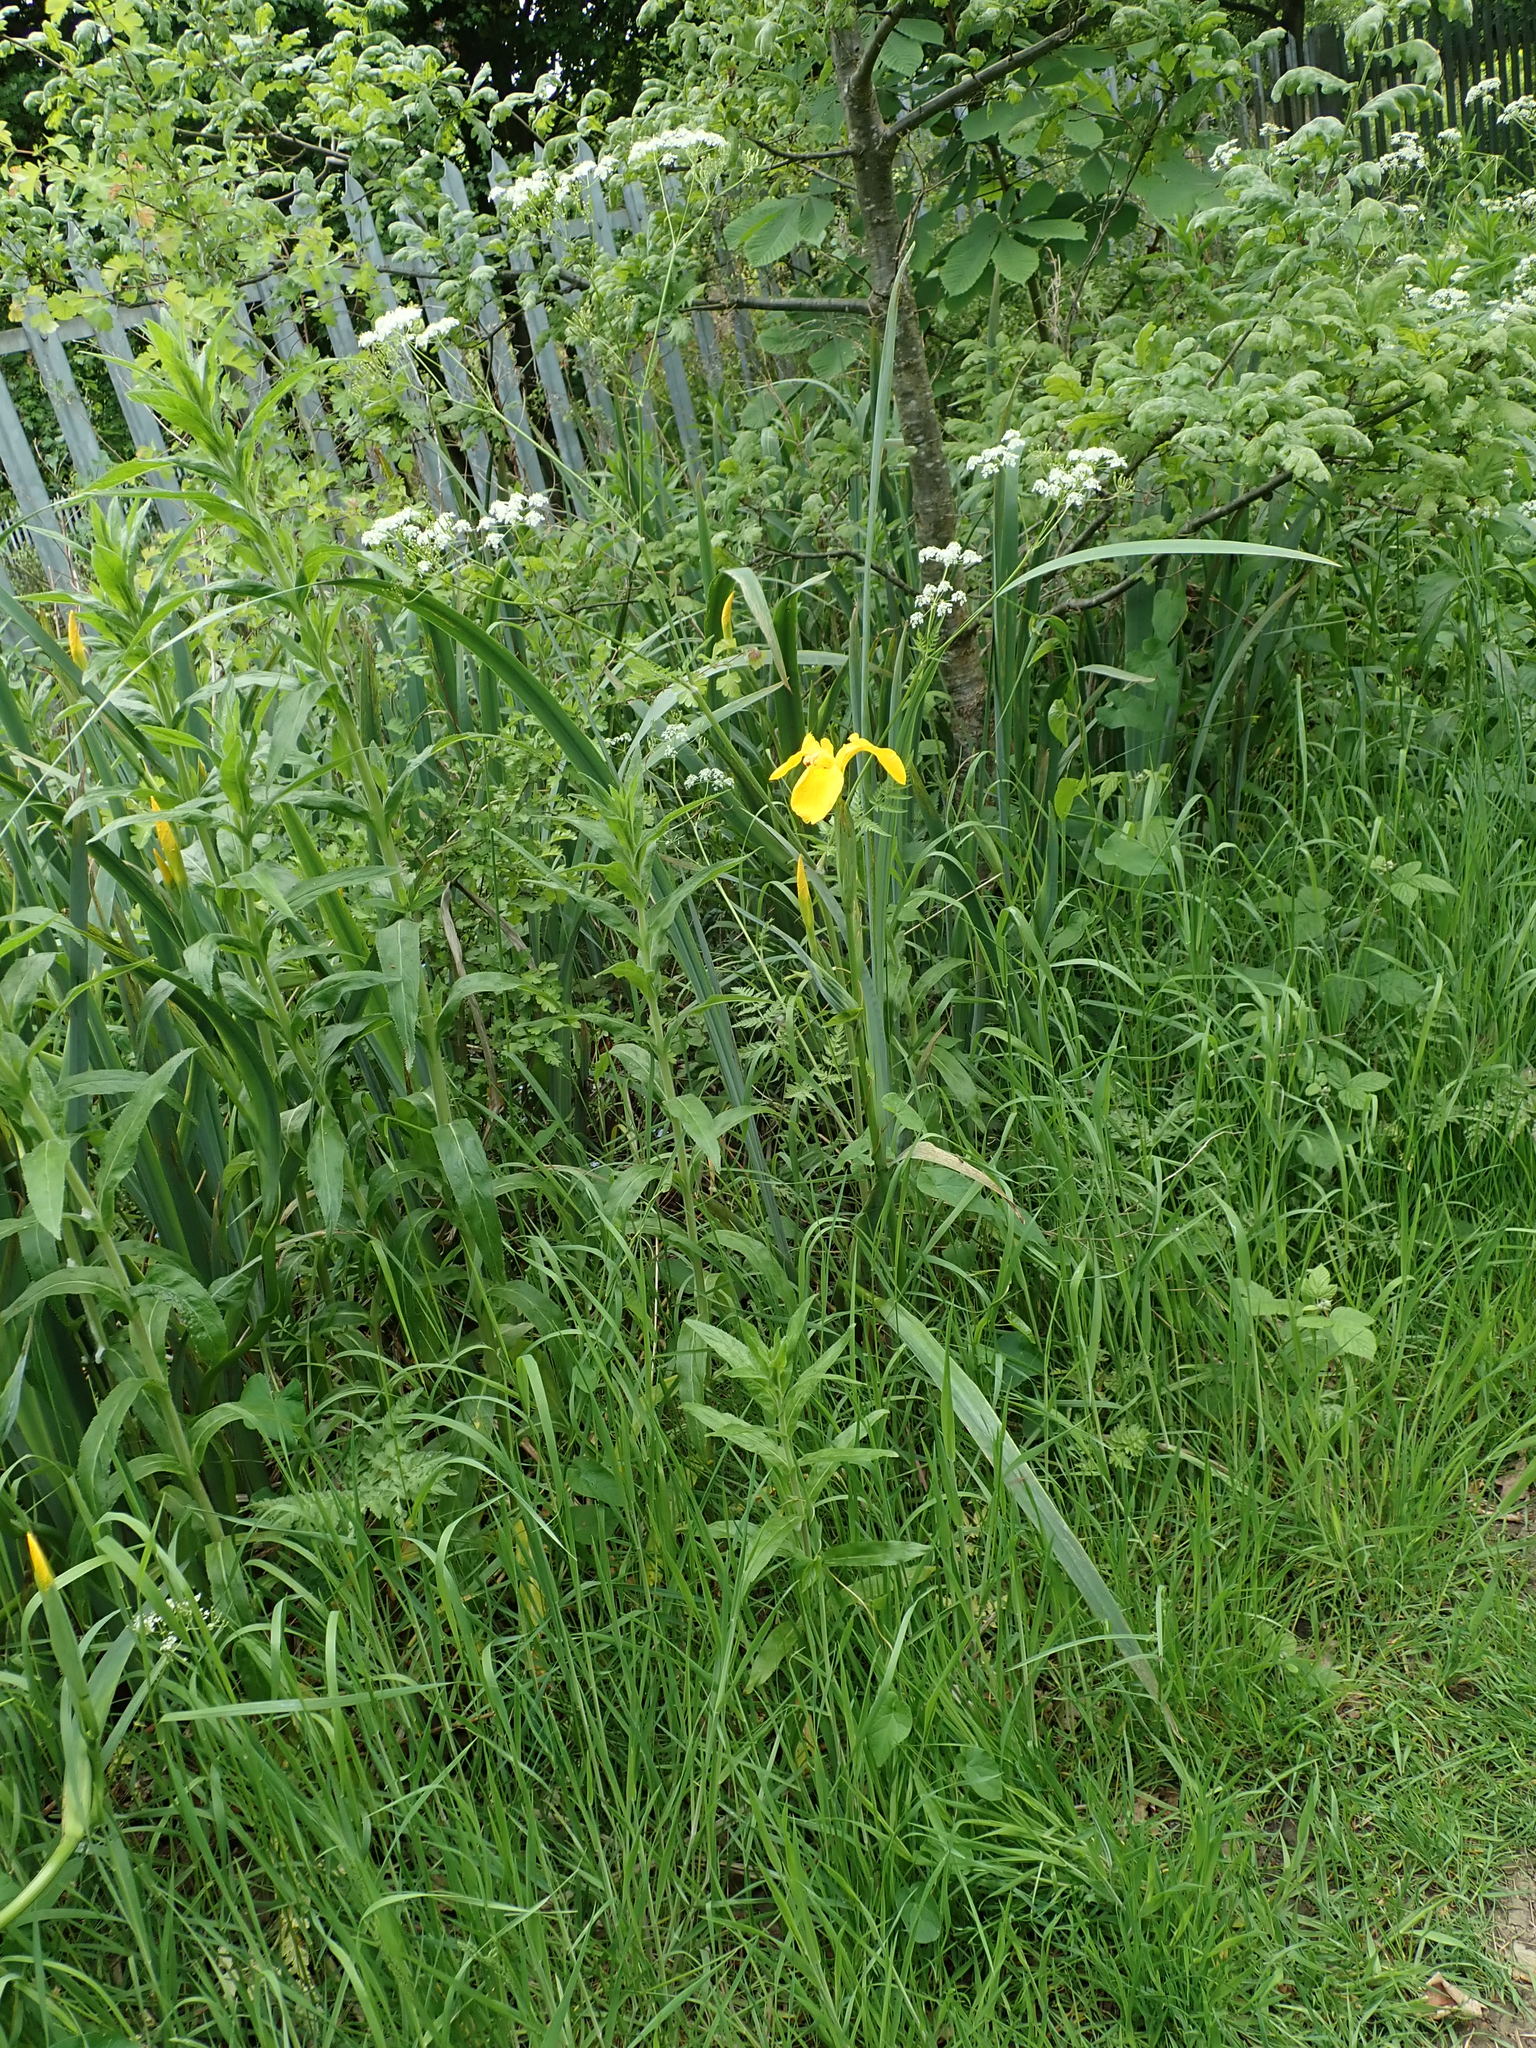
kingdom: Plantae
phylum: Tracheophyta
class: Liliopsida
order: Asparagales
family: Iridaceae
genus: Iris
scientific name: Iris pseudacorus
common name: Yellow flag
